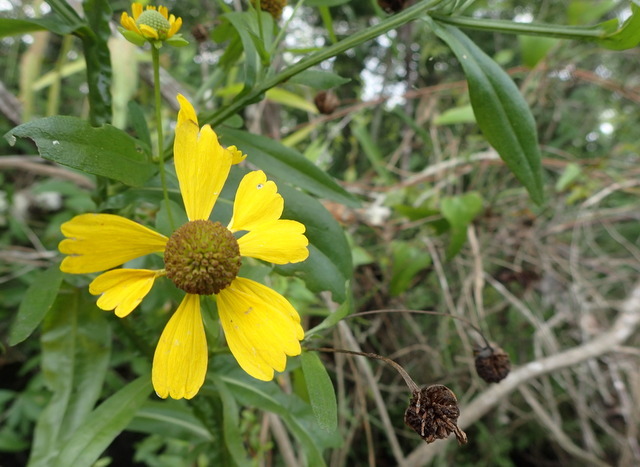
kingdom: Plantae
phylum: Tracheophyta
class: Magnoliopsida
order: Asterales
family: Asteraceae
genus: Helenium
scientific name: Helenium autumnale
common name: Sneezeweed
